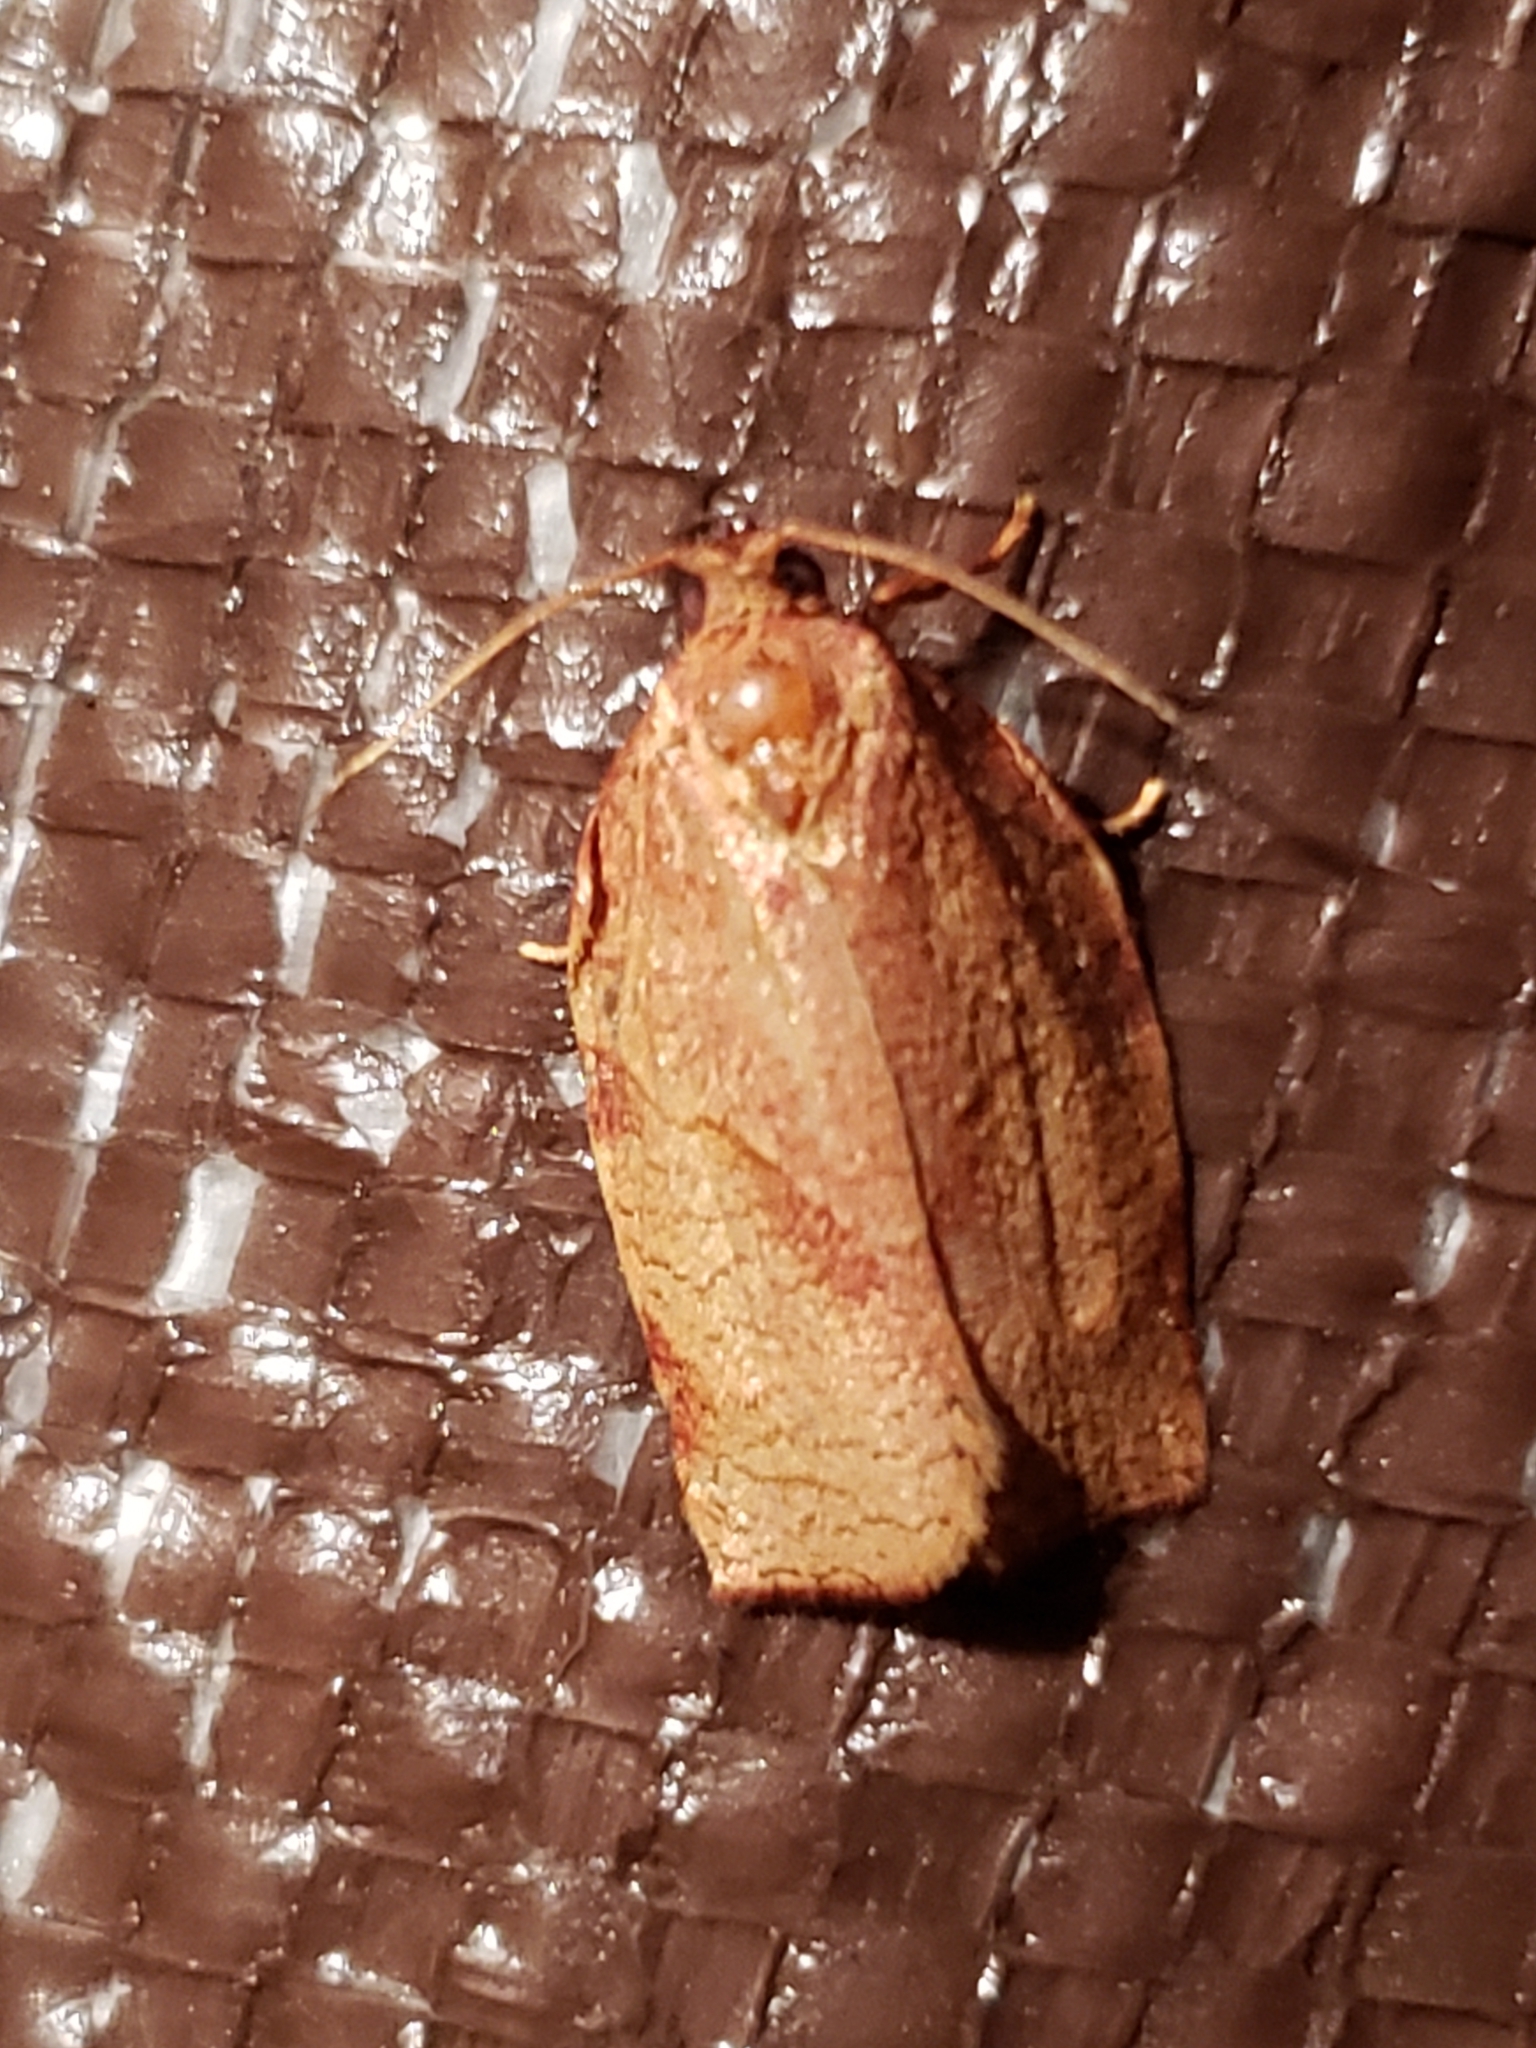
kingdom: Animalia
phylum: Arthropoda
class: Insecta
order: Lepidoptera
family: Tortricidae
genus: Choristoneura
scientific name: Choristoneura rosaceana
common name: Oblique-banded leafroller moth
